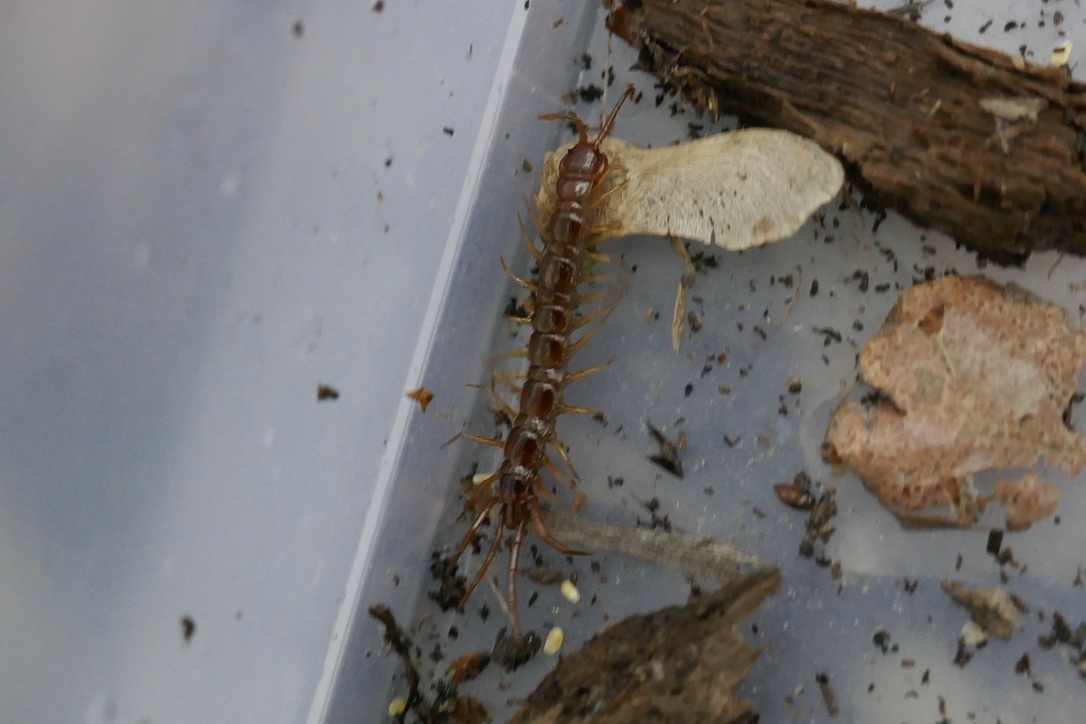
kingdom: Animalia
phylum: Arthropoda
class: Chilopoda
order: Lithobiomorpha
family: Lithobiidae
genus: Lithobius
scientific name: Lithobius forficatus
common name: Centipede
